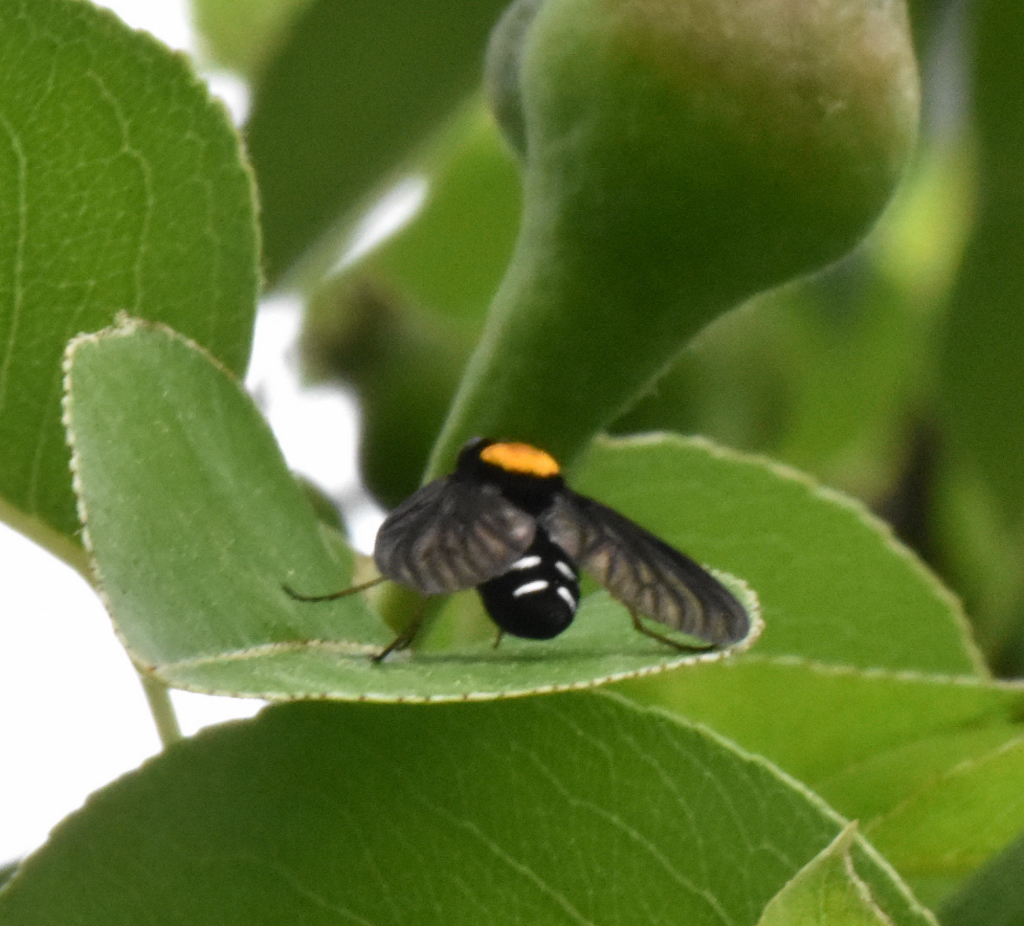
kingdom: Animalia
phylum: Arthropoda
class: Insecta
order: Diptera
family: Rhagionidae
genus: Chrysopilus
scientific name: Chrysopilus thoracicus
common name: Golden-backed snipe fly
